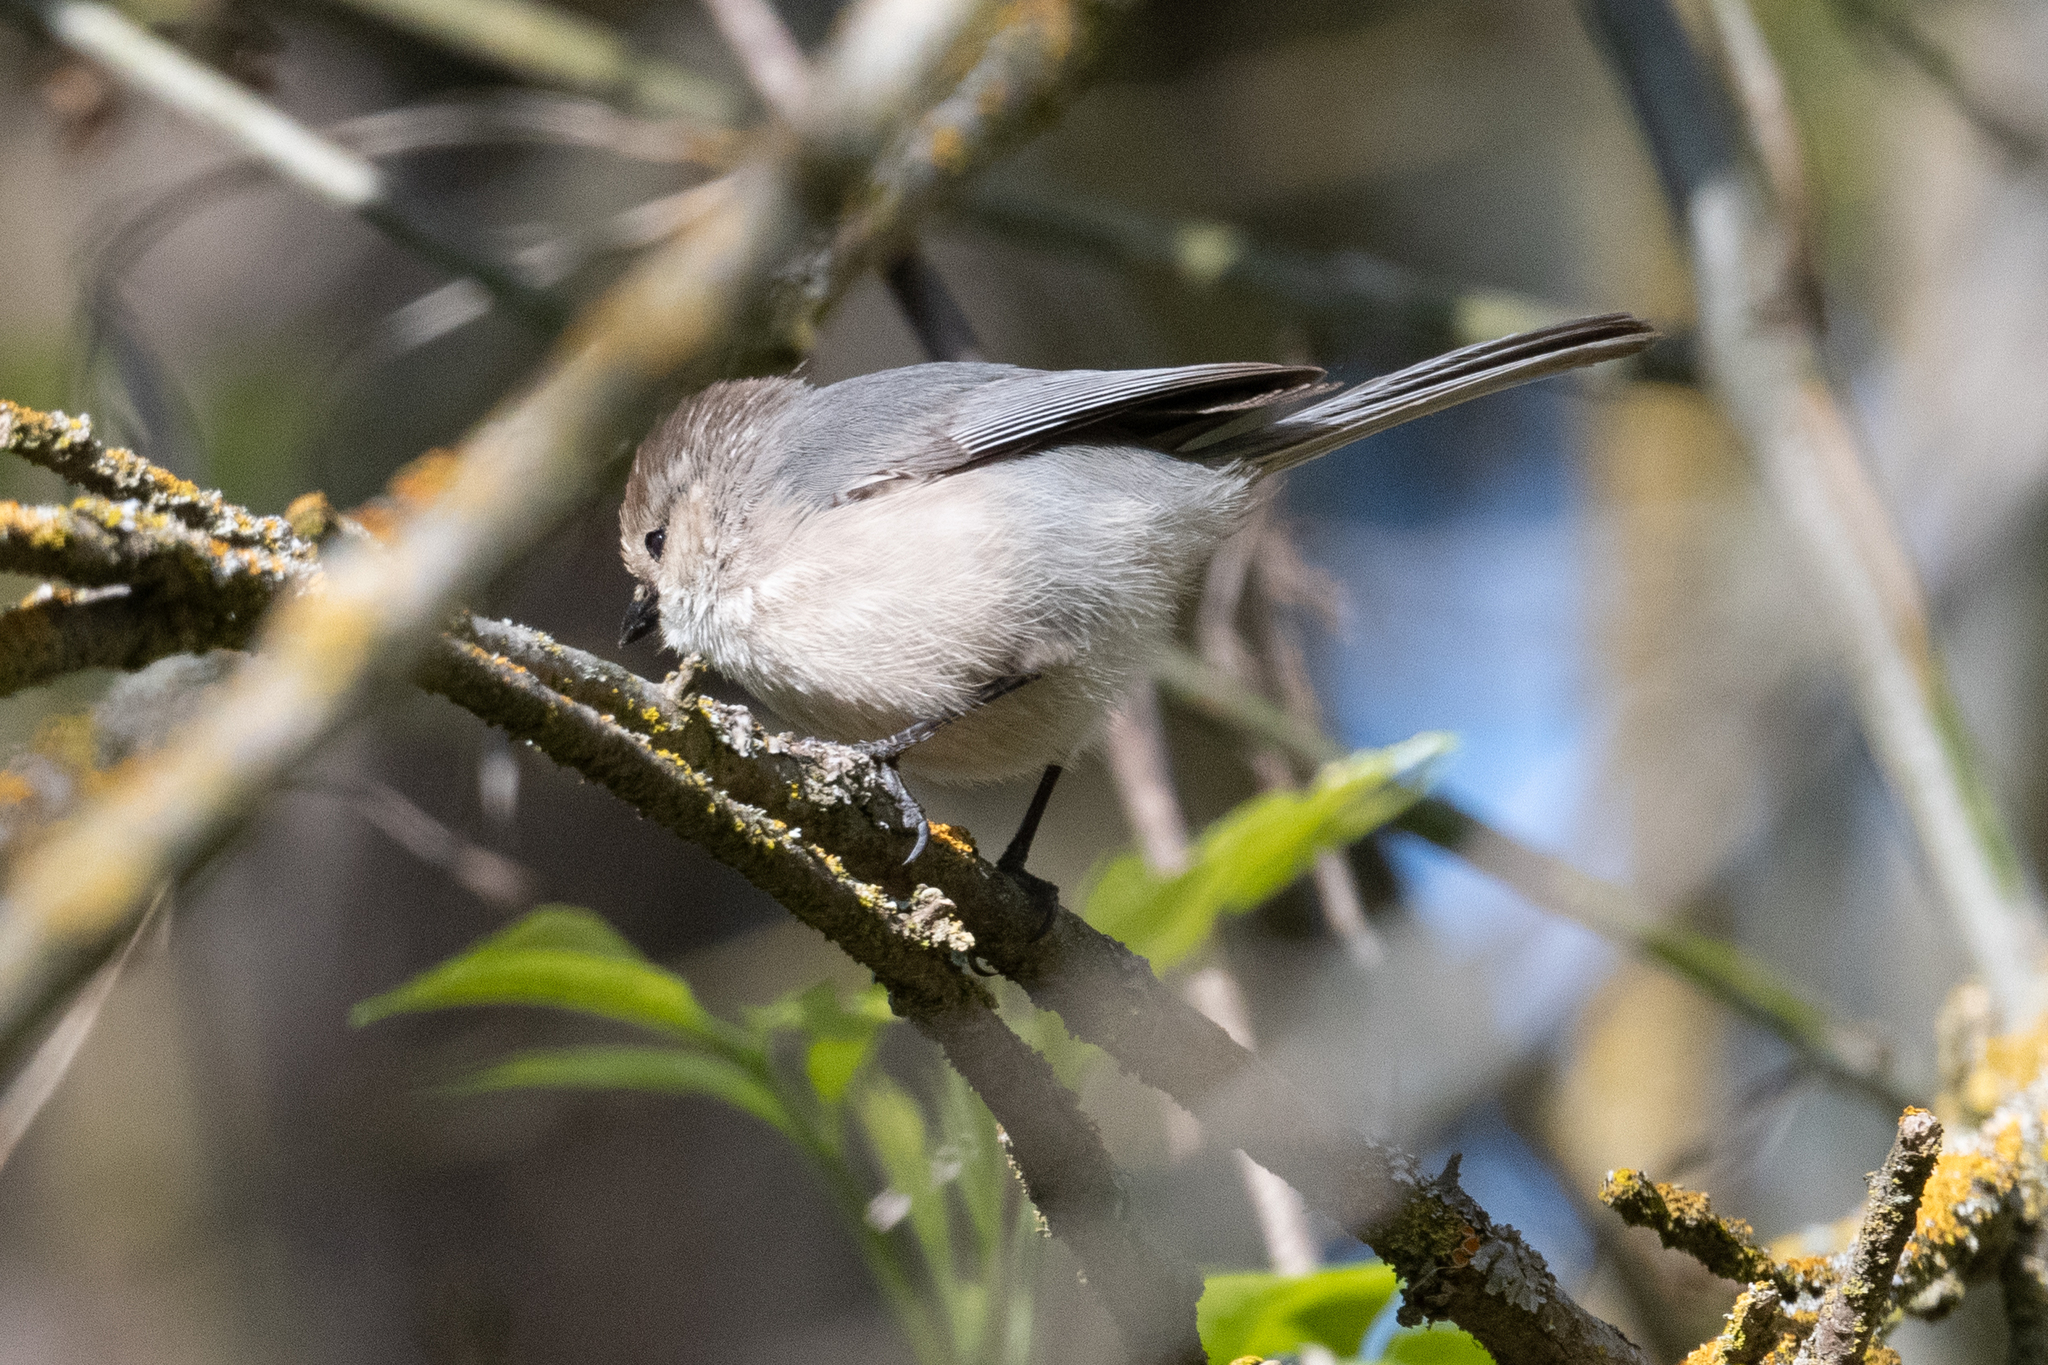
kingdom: Animalia
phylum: Chordata
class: Aves
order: Passeriformes
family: Aegithalidae
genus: Psaltriparus
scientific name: Psaltriparus minimus
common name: American bushtit
